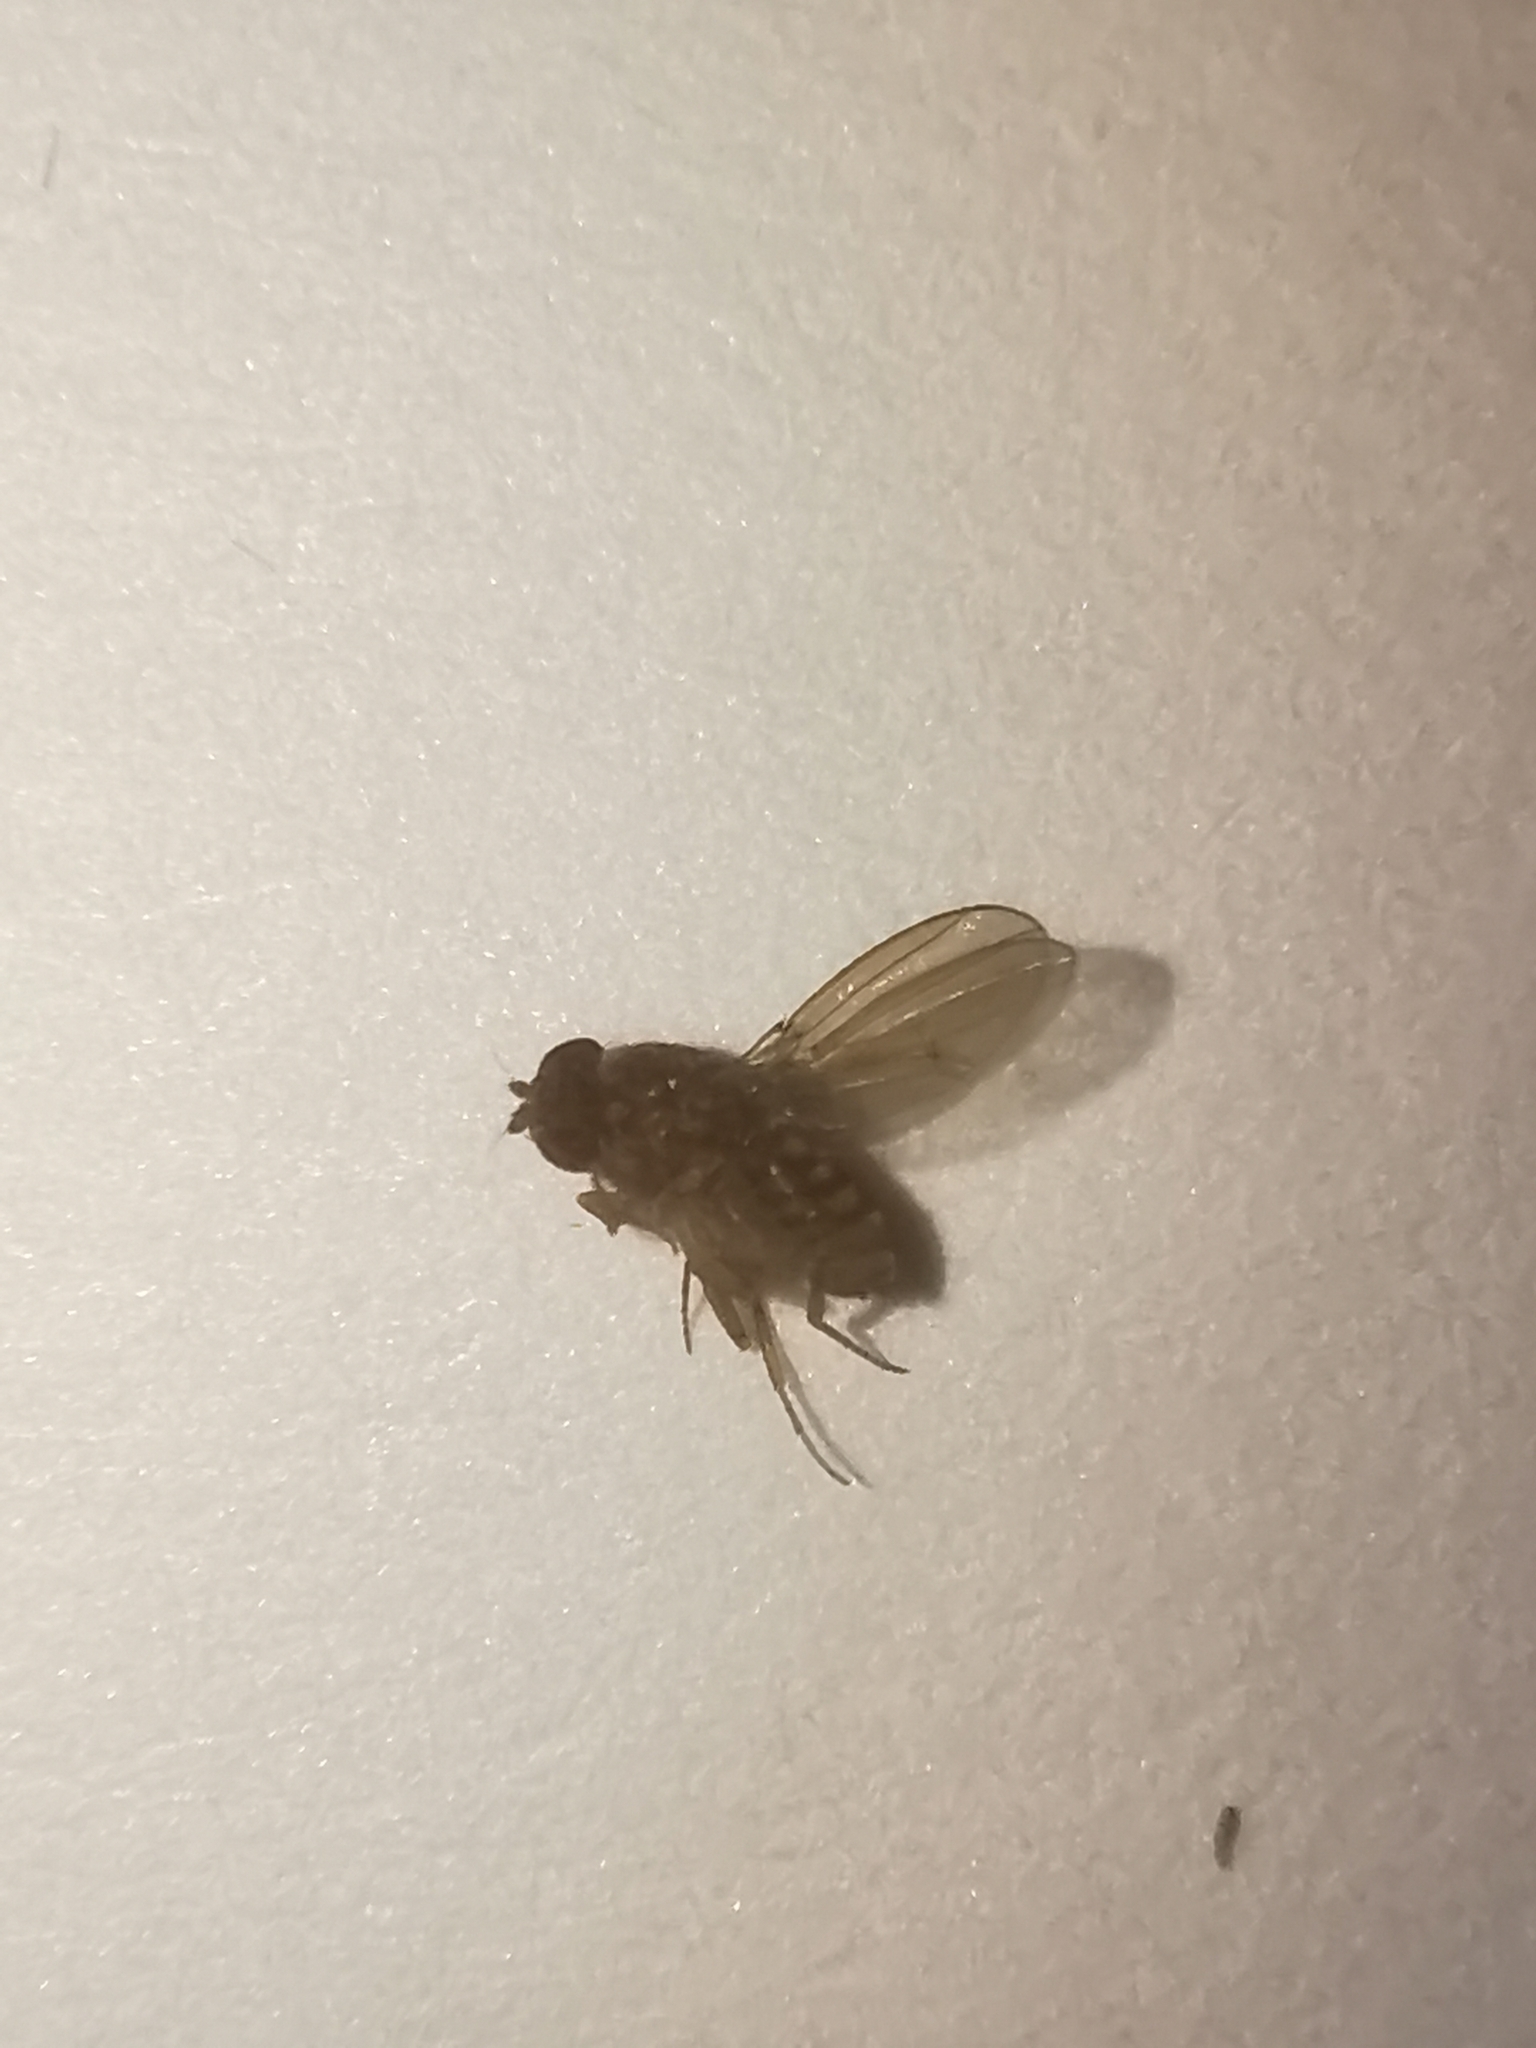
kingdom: Animalia
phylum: Arthropoda
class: Insecta
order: Diptera
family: Drosophilidae
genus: Drosophila
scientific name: Drosophila repleta
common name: Pomace fly
